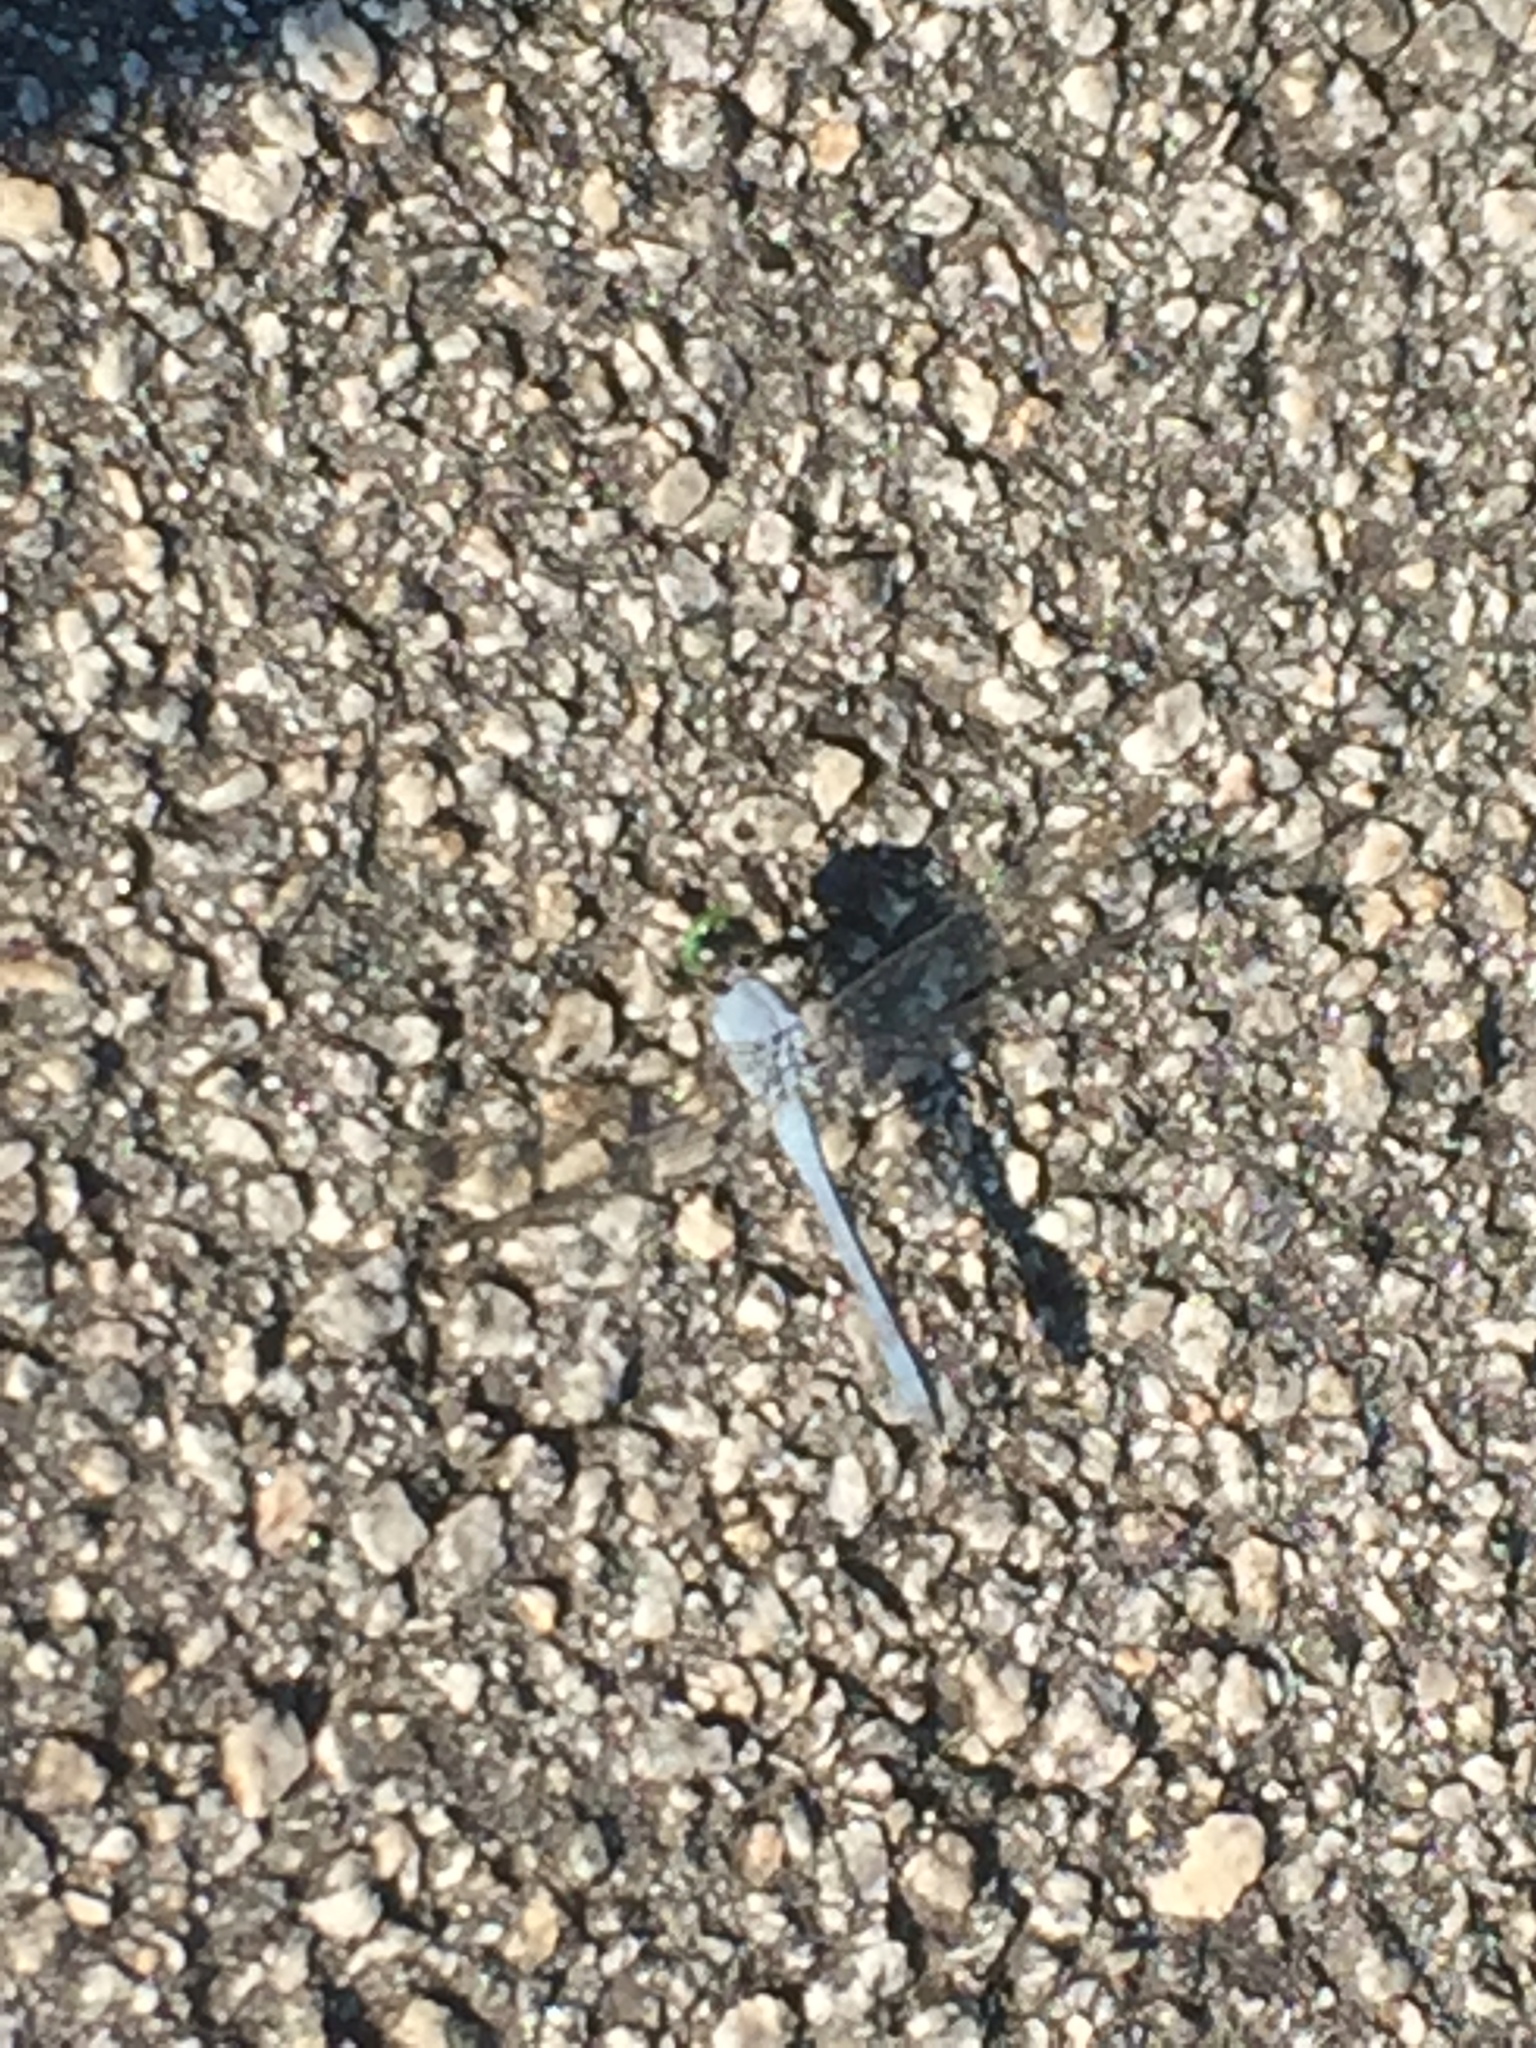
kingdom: Animalia
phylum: Arthropoda
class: Insecta
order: Odonata
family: Libellulidae
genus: Erythemis
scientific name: Erythemis simplicicollis
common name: Eastern pondhawk
